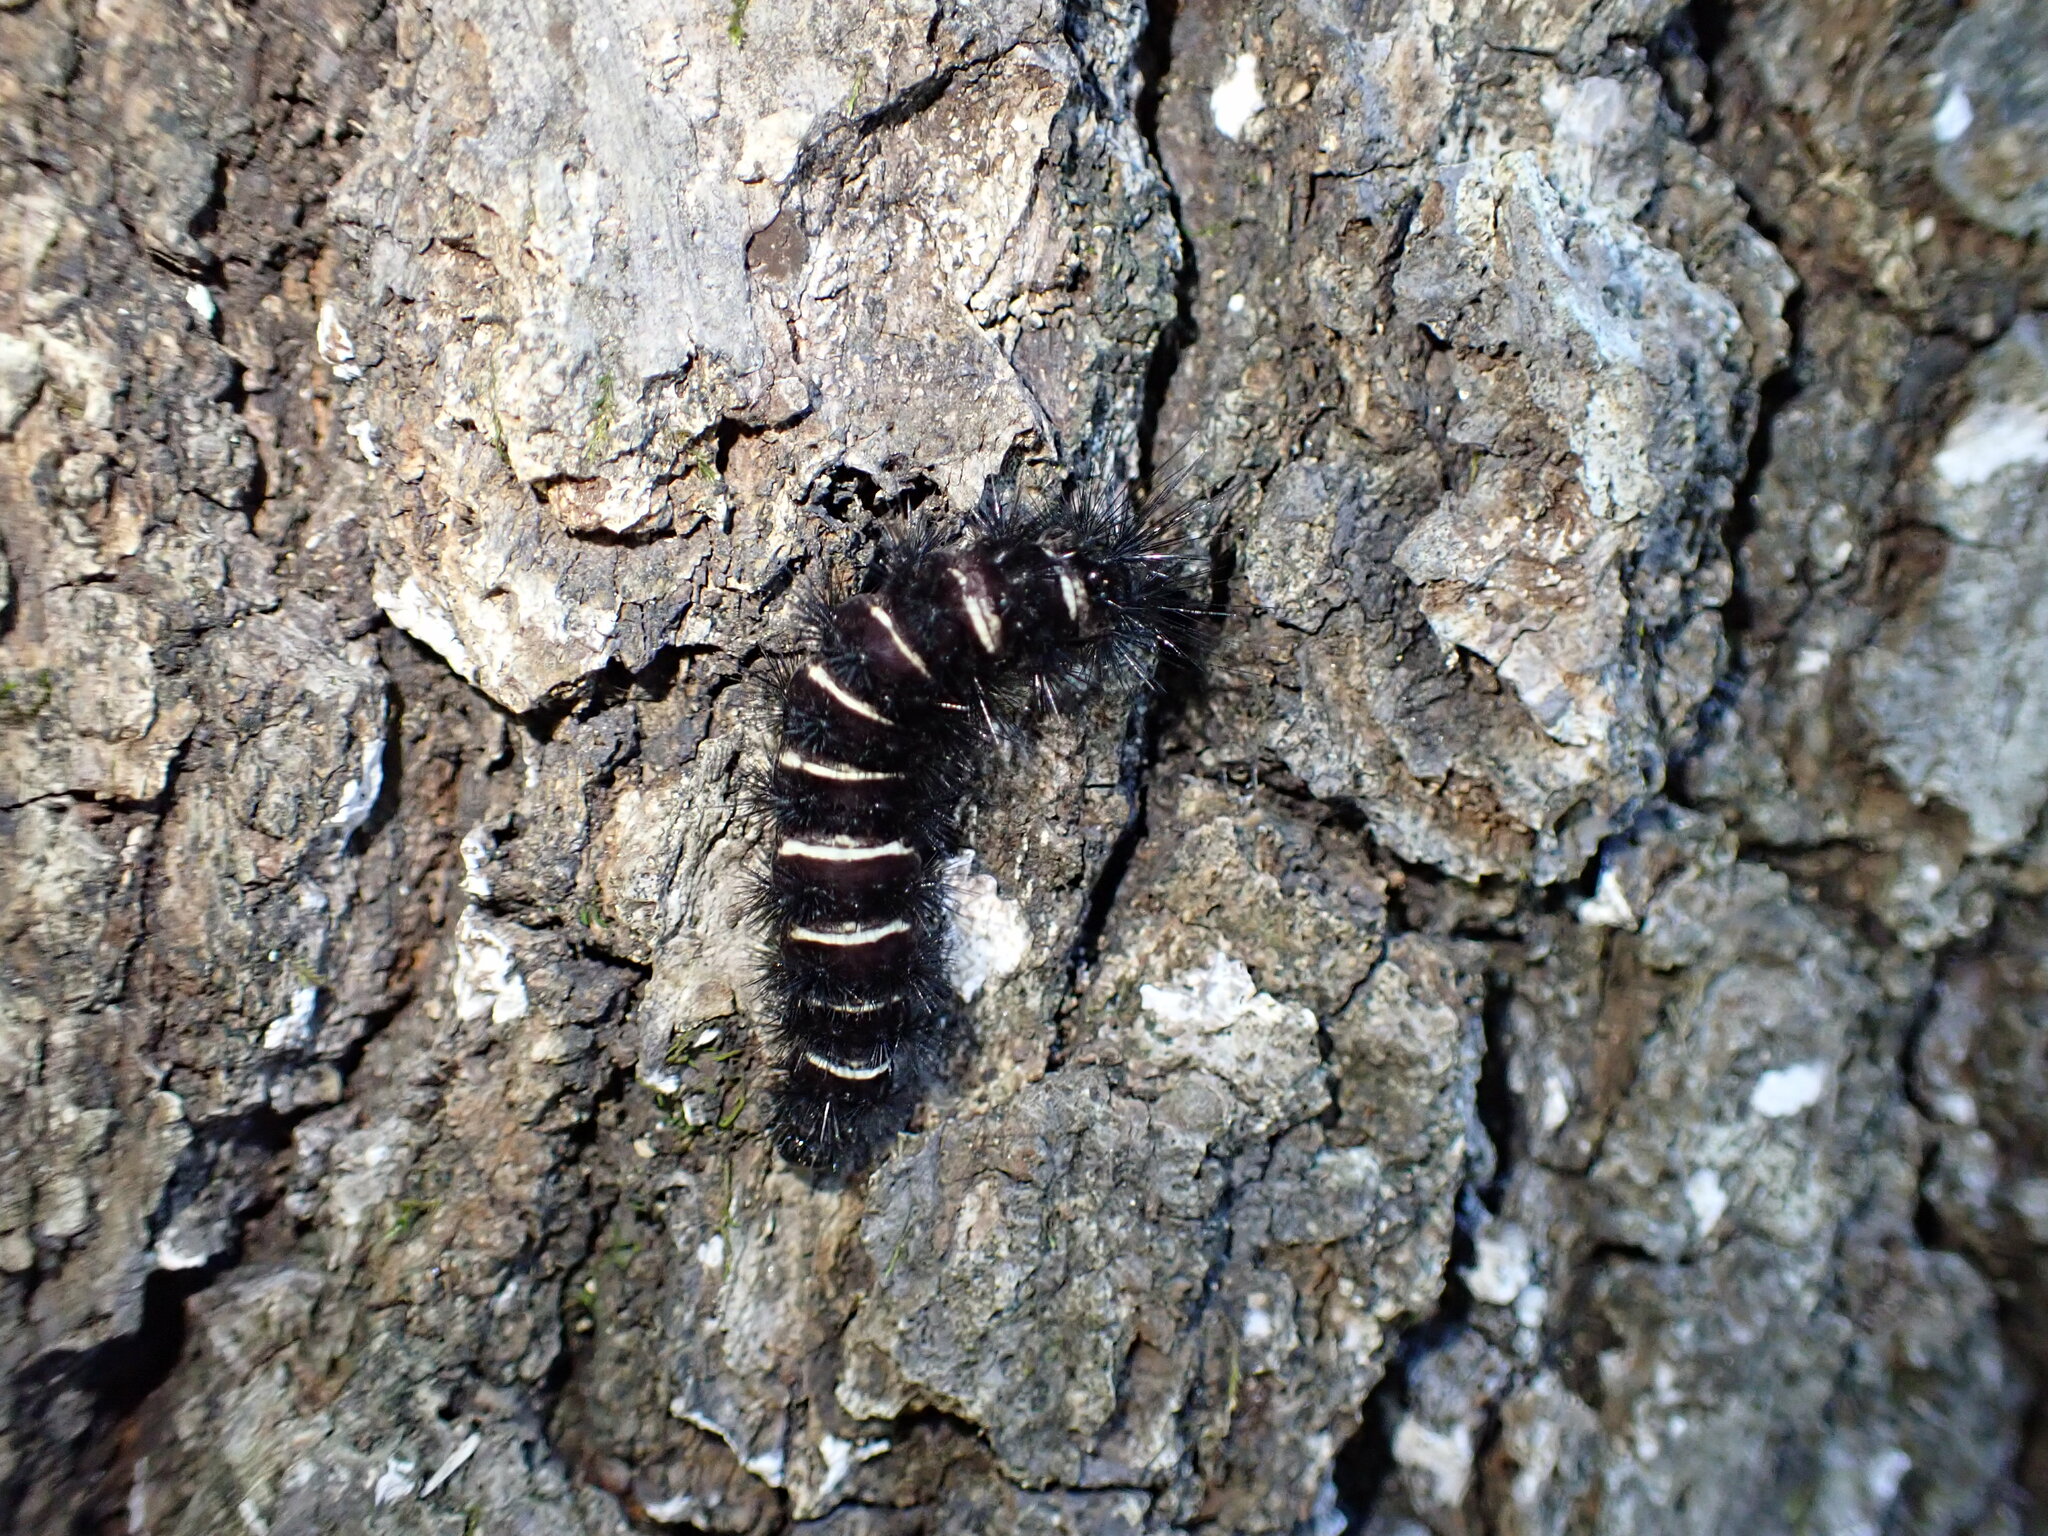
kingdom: Animalia
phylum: Arthropoda
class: Insecta
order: Lepidoptera
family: Erebidae
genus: Spilosoma
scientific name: Spilosoma congrua
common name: Agreeable tiger moth
